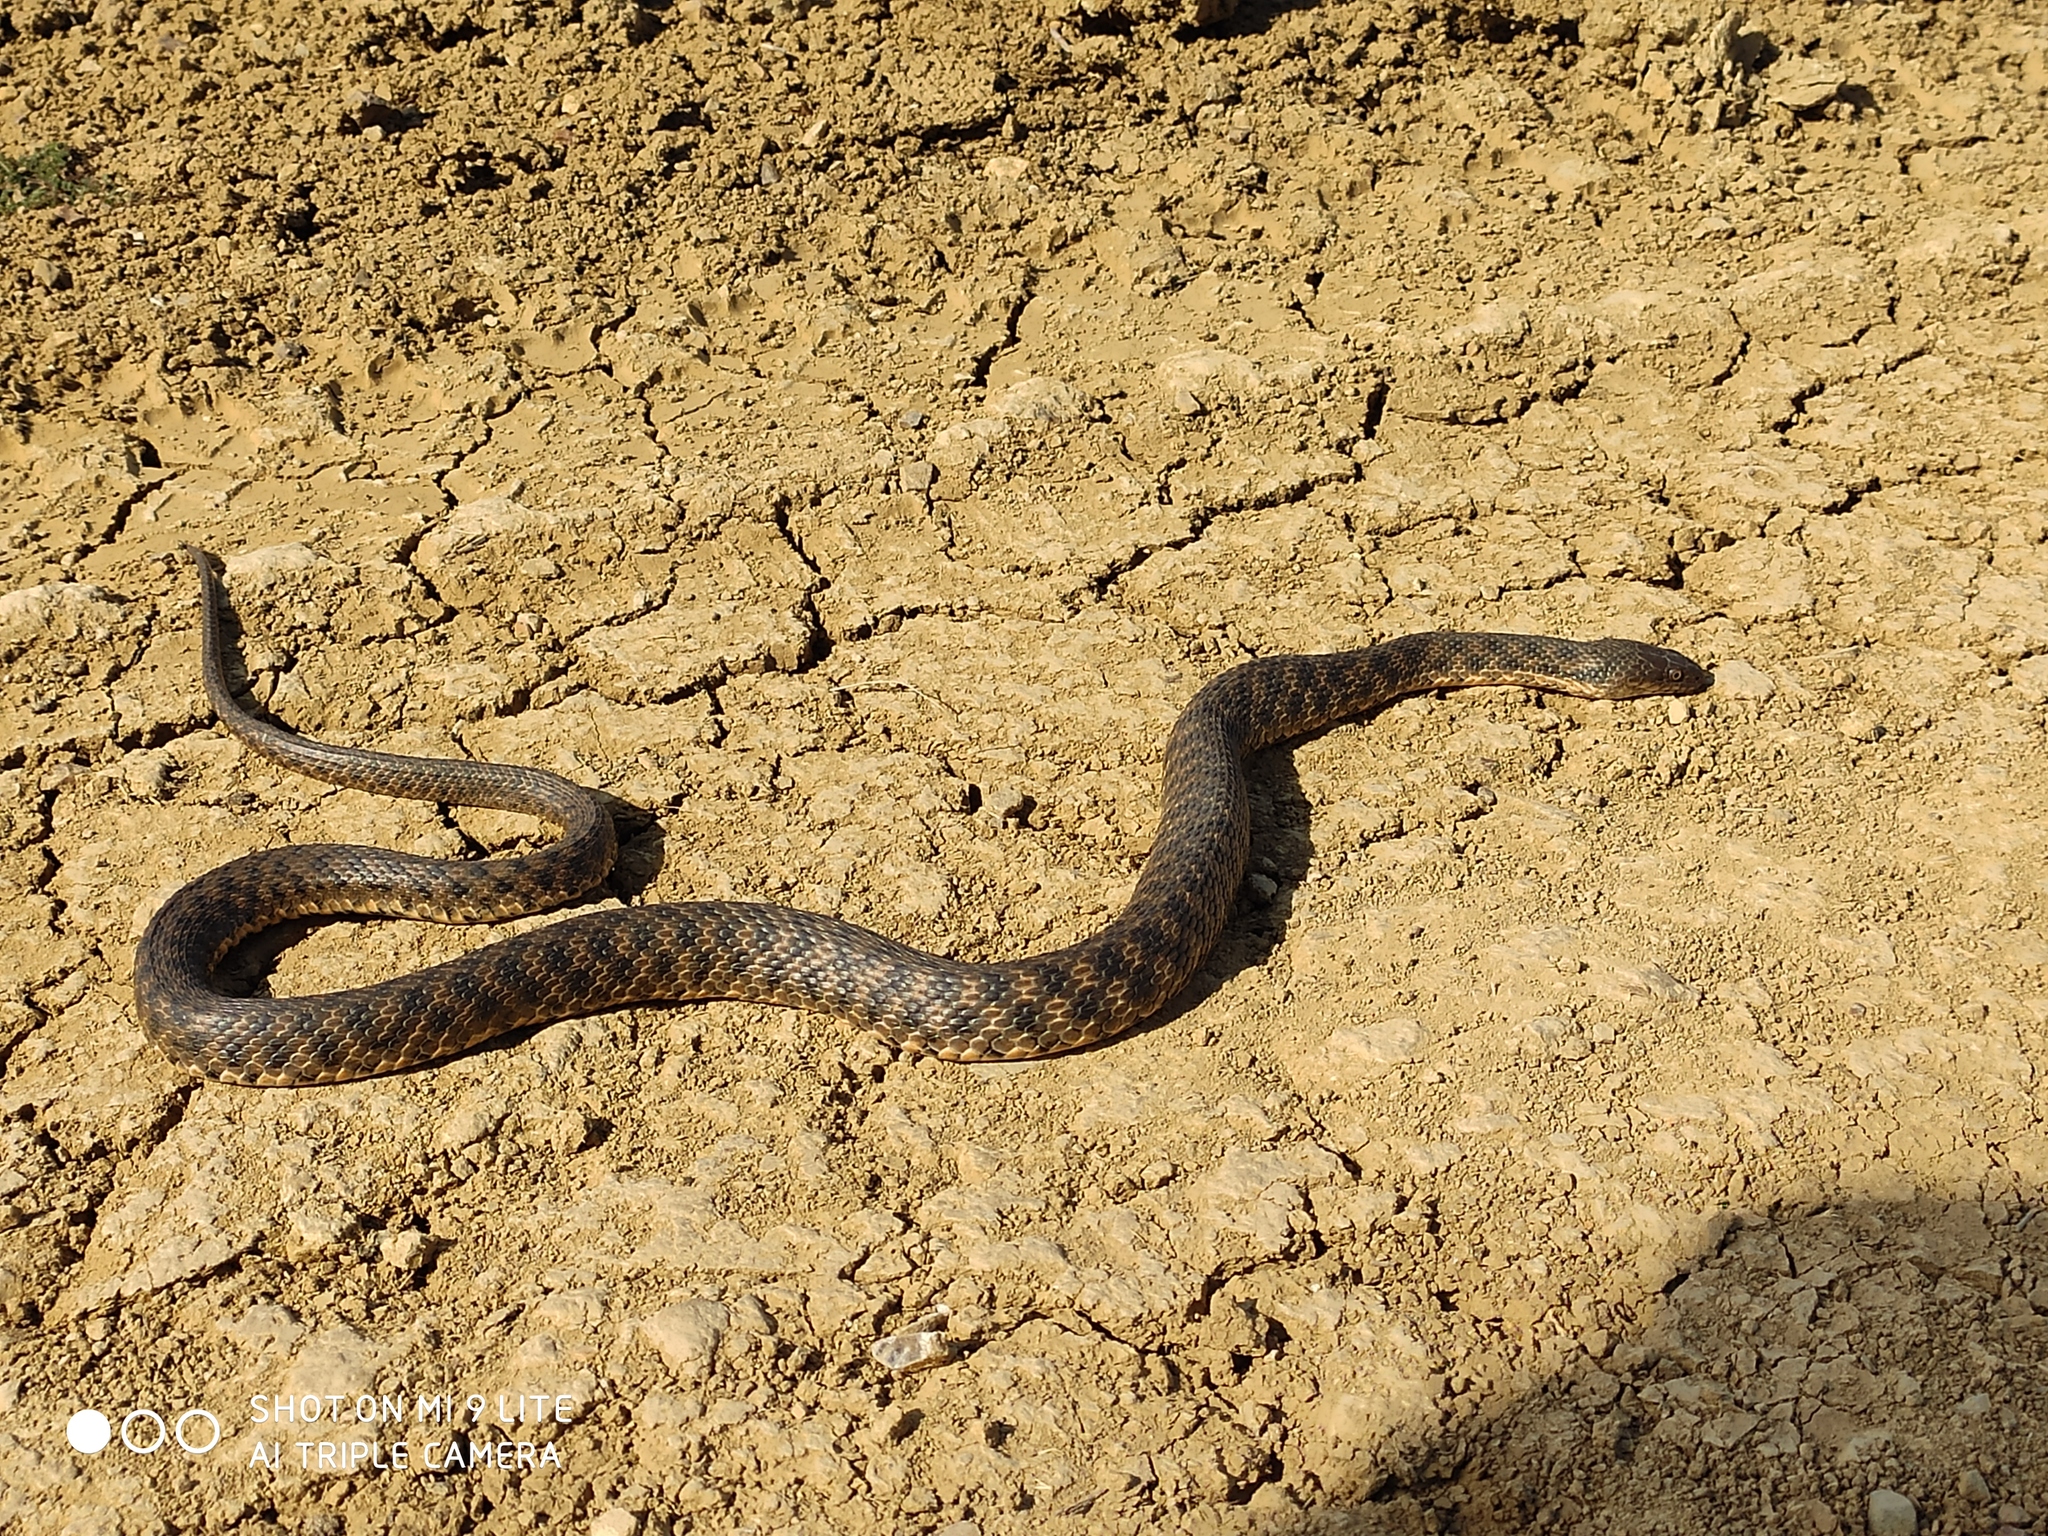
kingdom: Animalia
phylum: Chordata
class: Squamata
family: Colubridae
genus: Natrix
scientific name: Natrix tessellata
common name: Dice snake
